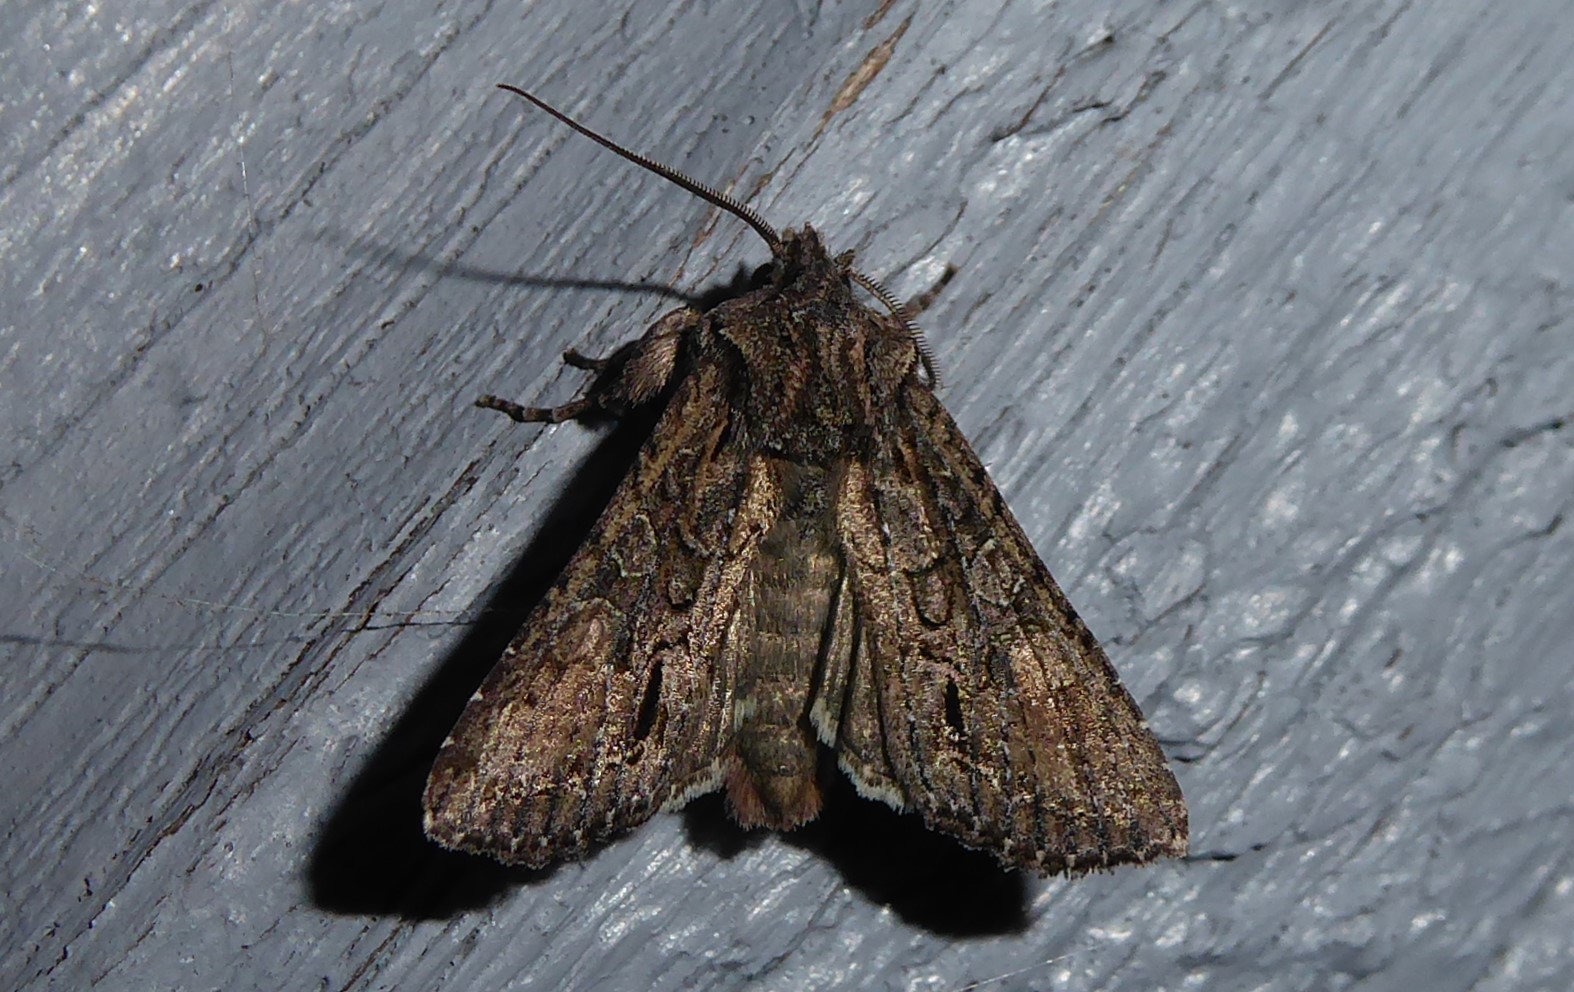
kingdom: Animalia
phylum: Arthropoda
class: Insecta
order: Lepidoptera
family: Noctuidae
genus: Ichneutica
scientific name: Ichneutica mutans
